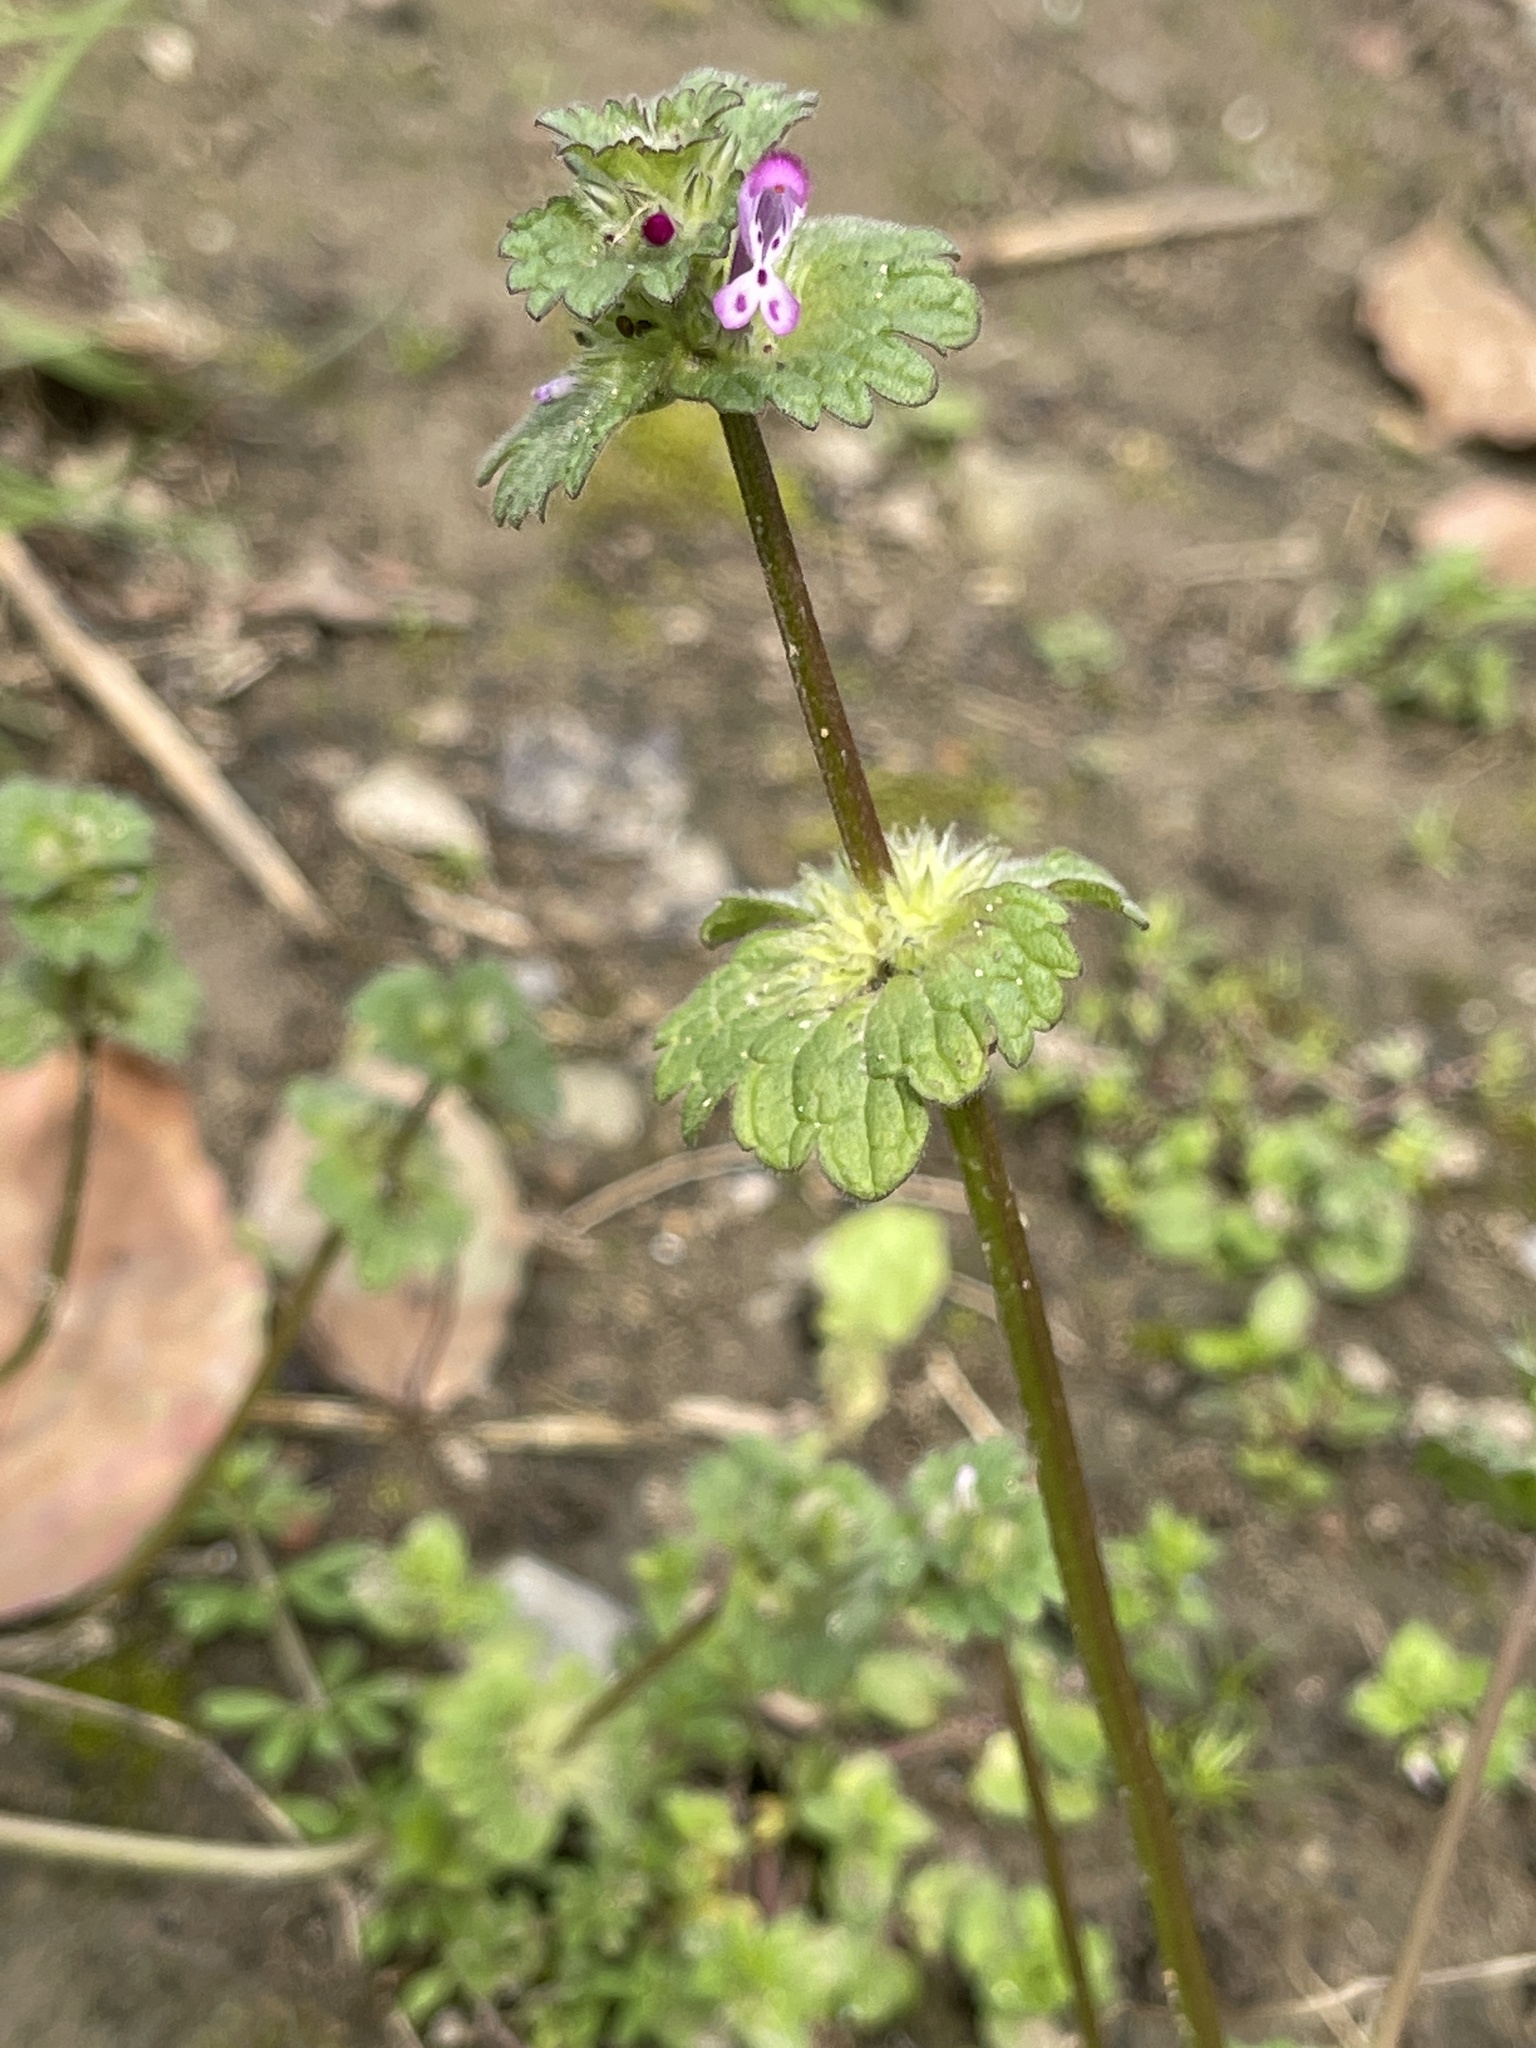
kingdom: Plantae
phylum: Tracheophyta
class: Magnoliopsida
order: Lamiales
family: Lamiaceae
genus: Lamium
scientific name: Lamium amplexicaule
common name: Henbit dead-nettle
